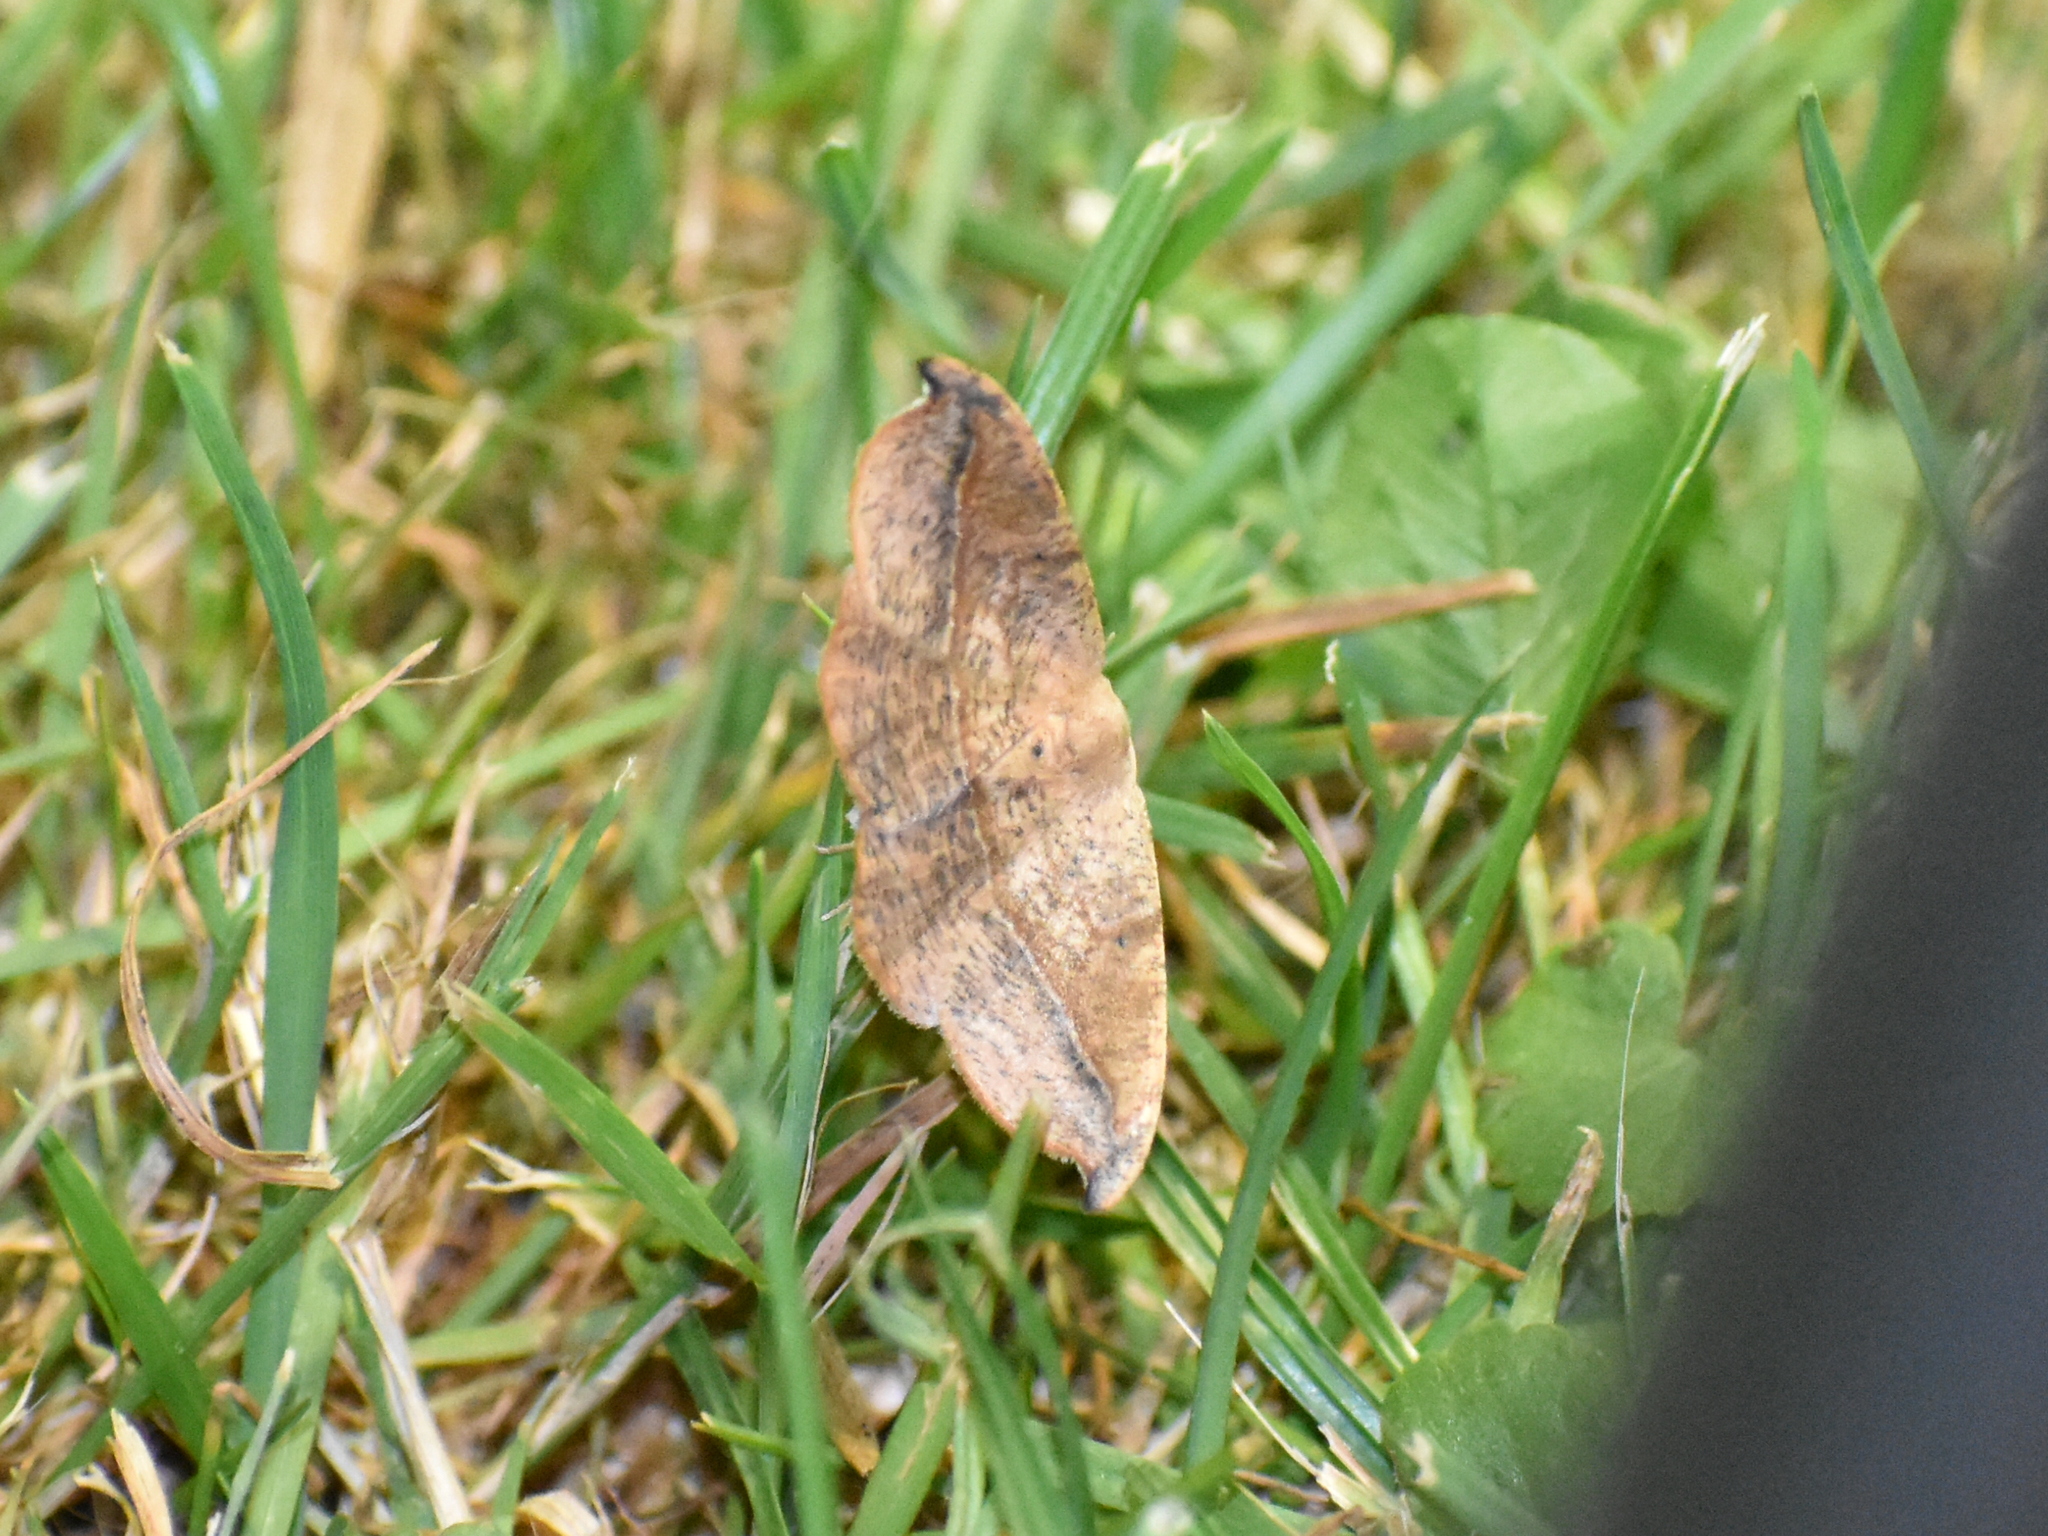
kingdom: Animalia
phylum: Arthropoda
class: Insecta
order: Lepidoptera
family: Geometridae
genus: Patalene
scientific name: Patalene olyzonaria
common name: Juniper geometer moth
